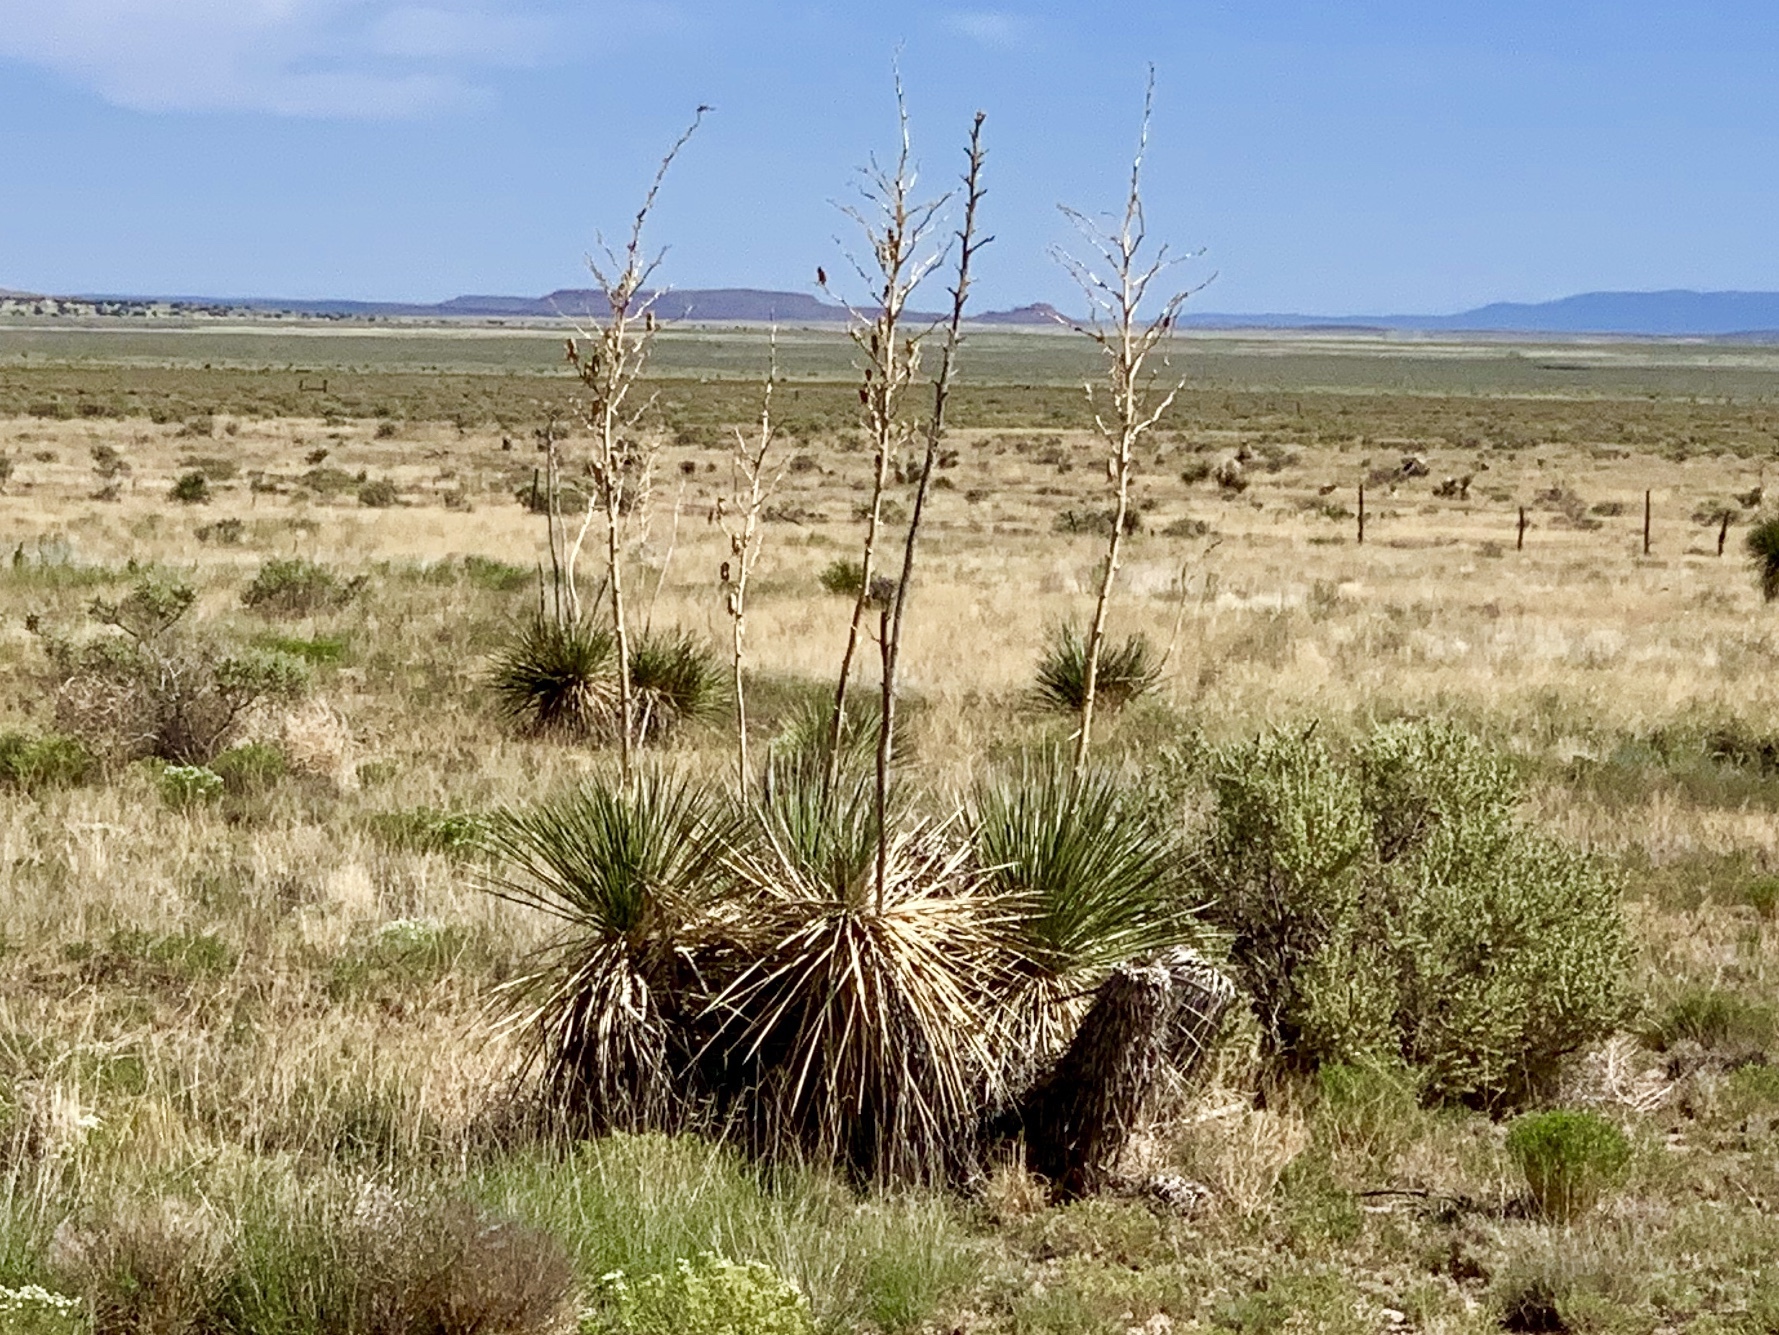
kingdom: Plantae
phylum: Tracheophyta
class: Liliopsida
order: Asparagales
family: Asparagaceae
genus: Yucca
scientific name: Yucca elata
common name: Palmella
